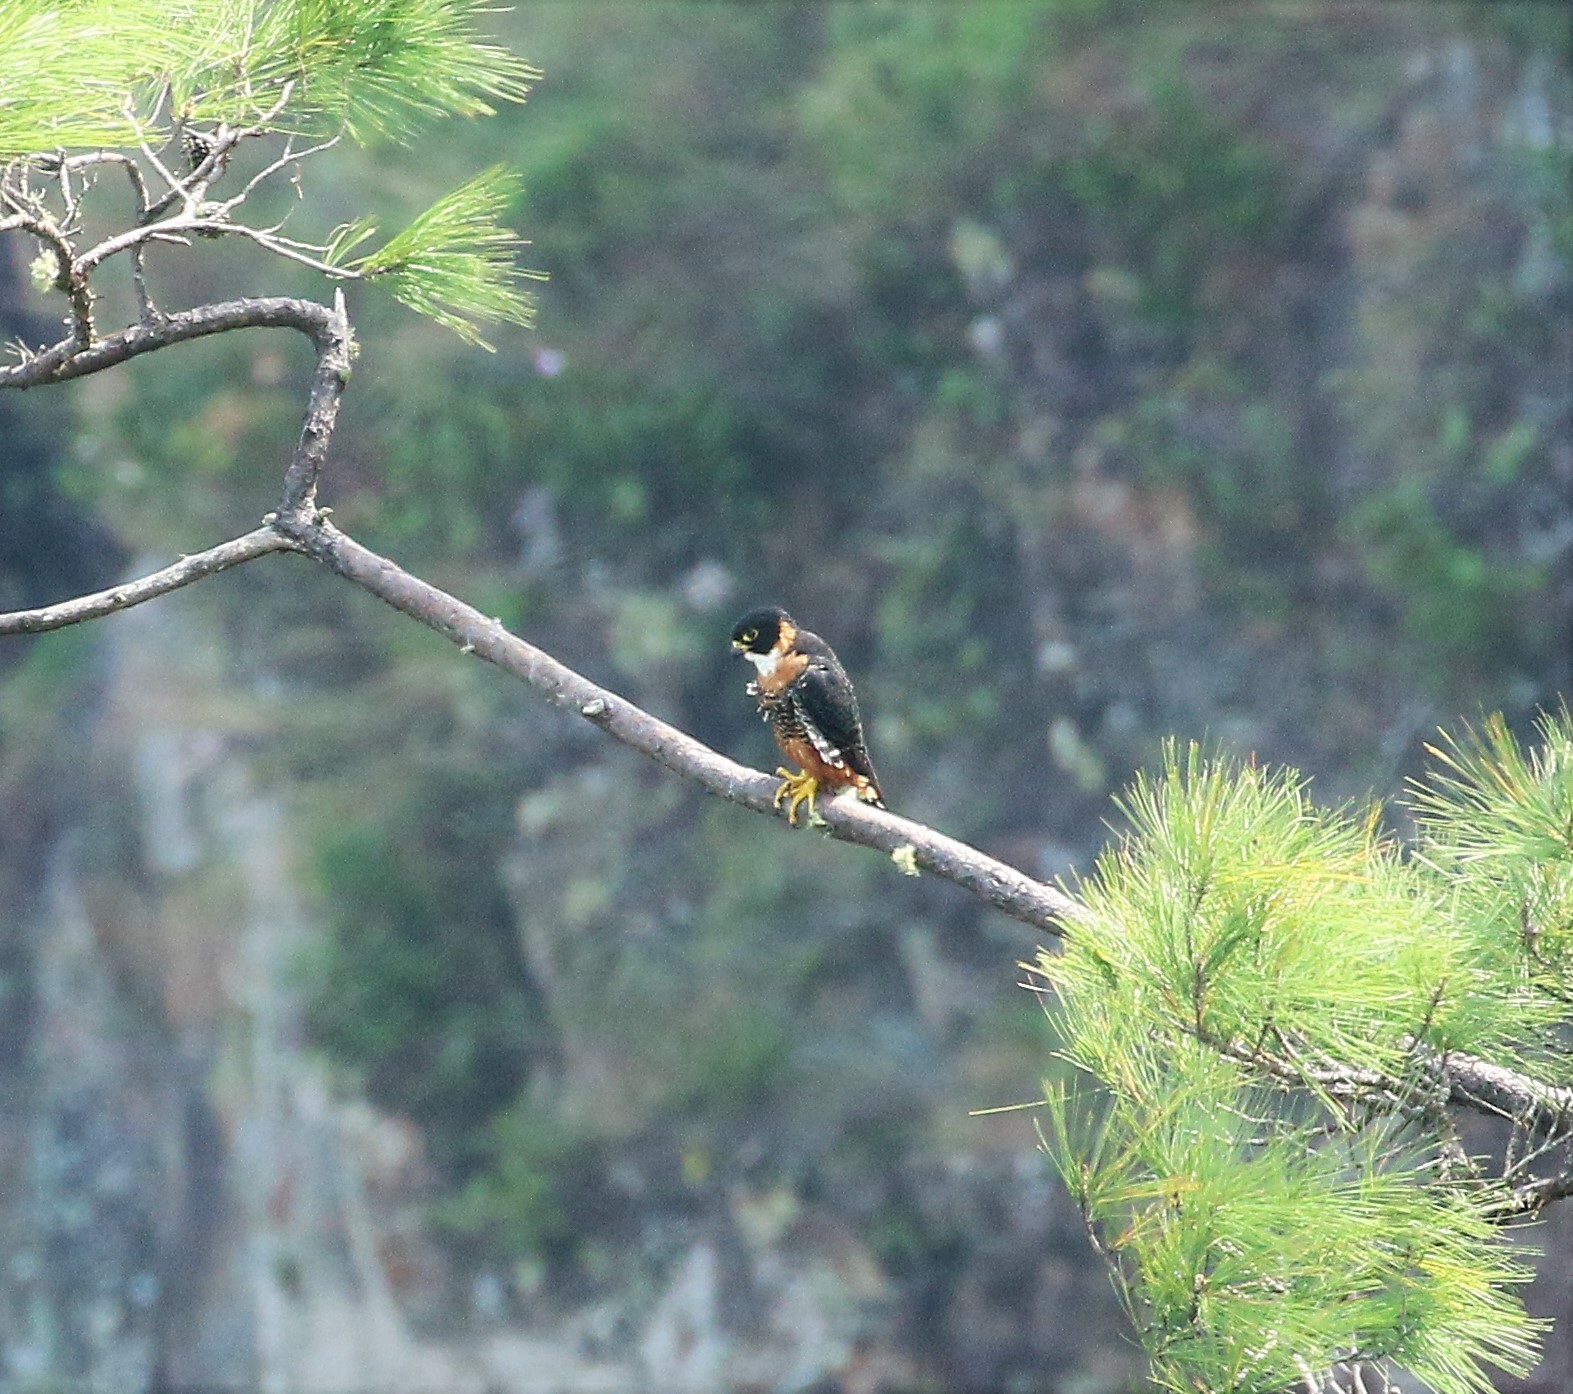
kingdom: Animalia
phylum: Chordata
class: Aves
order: Falconiformes
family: Falconidae
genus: Falco
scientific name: Falco deiroleucus
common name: Orange-breasted falcon
